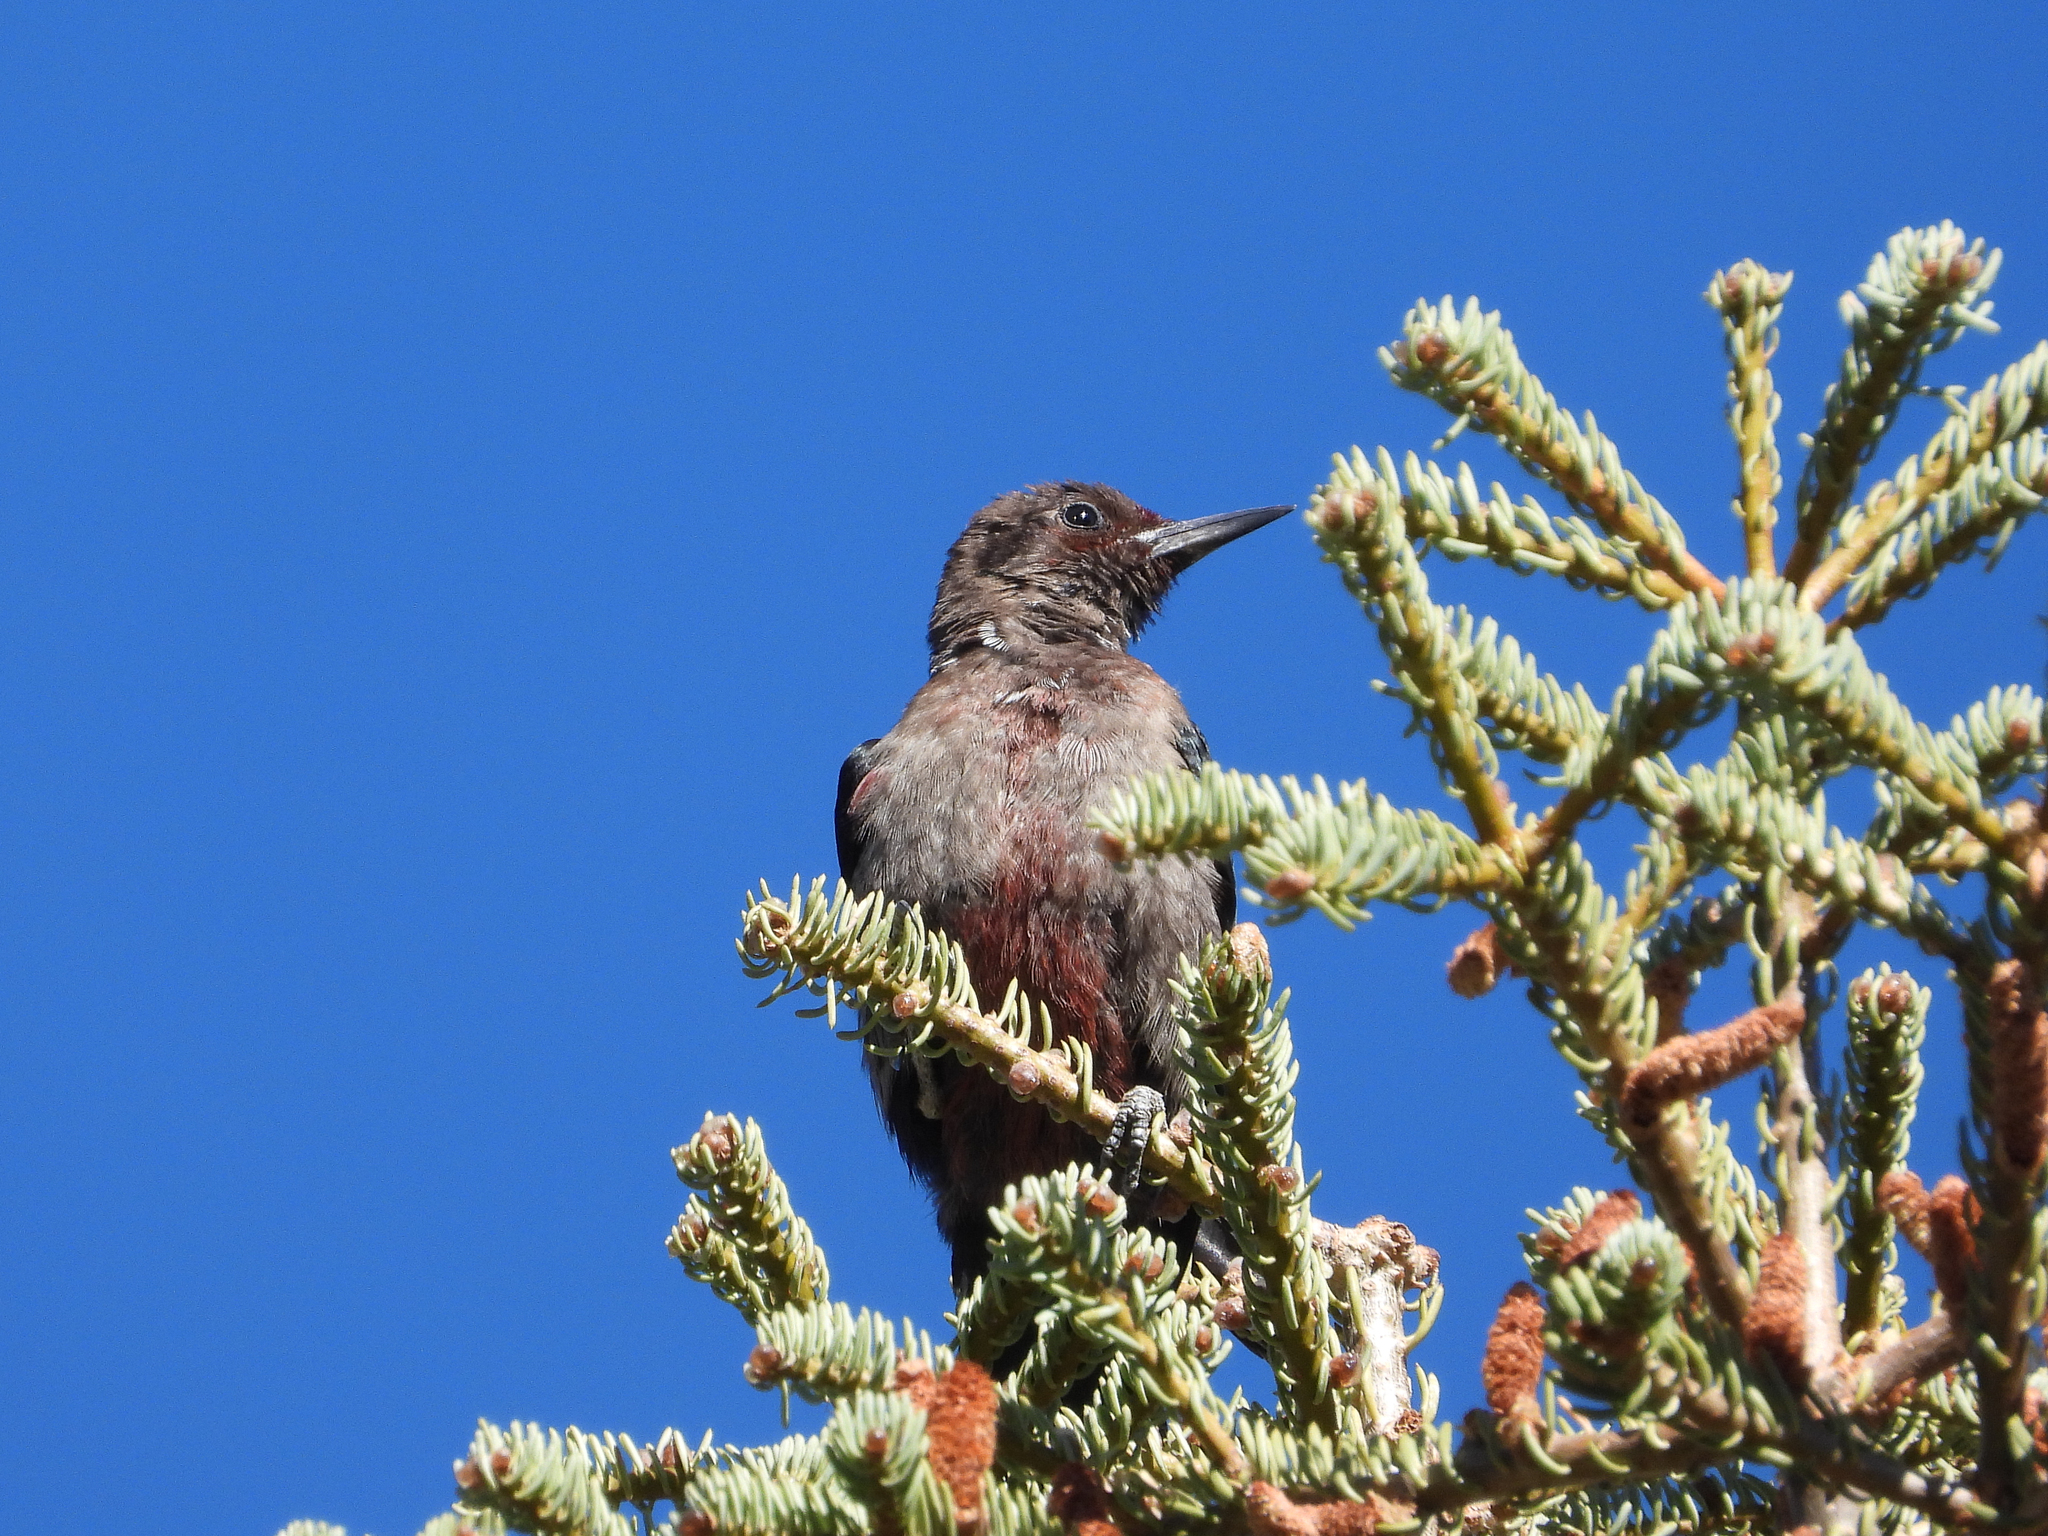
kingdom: Animalia
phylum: Chordata
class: Aves
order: Piciformes
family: Picidae
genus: Melanerpes
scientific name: Melanerpes lewis
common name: Lewis's woodpecker
